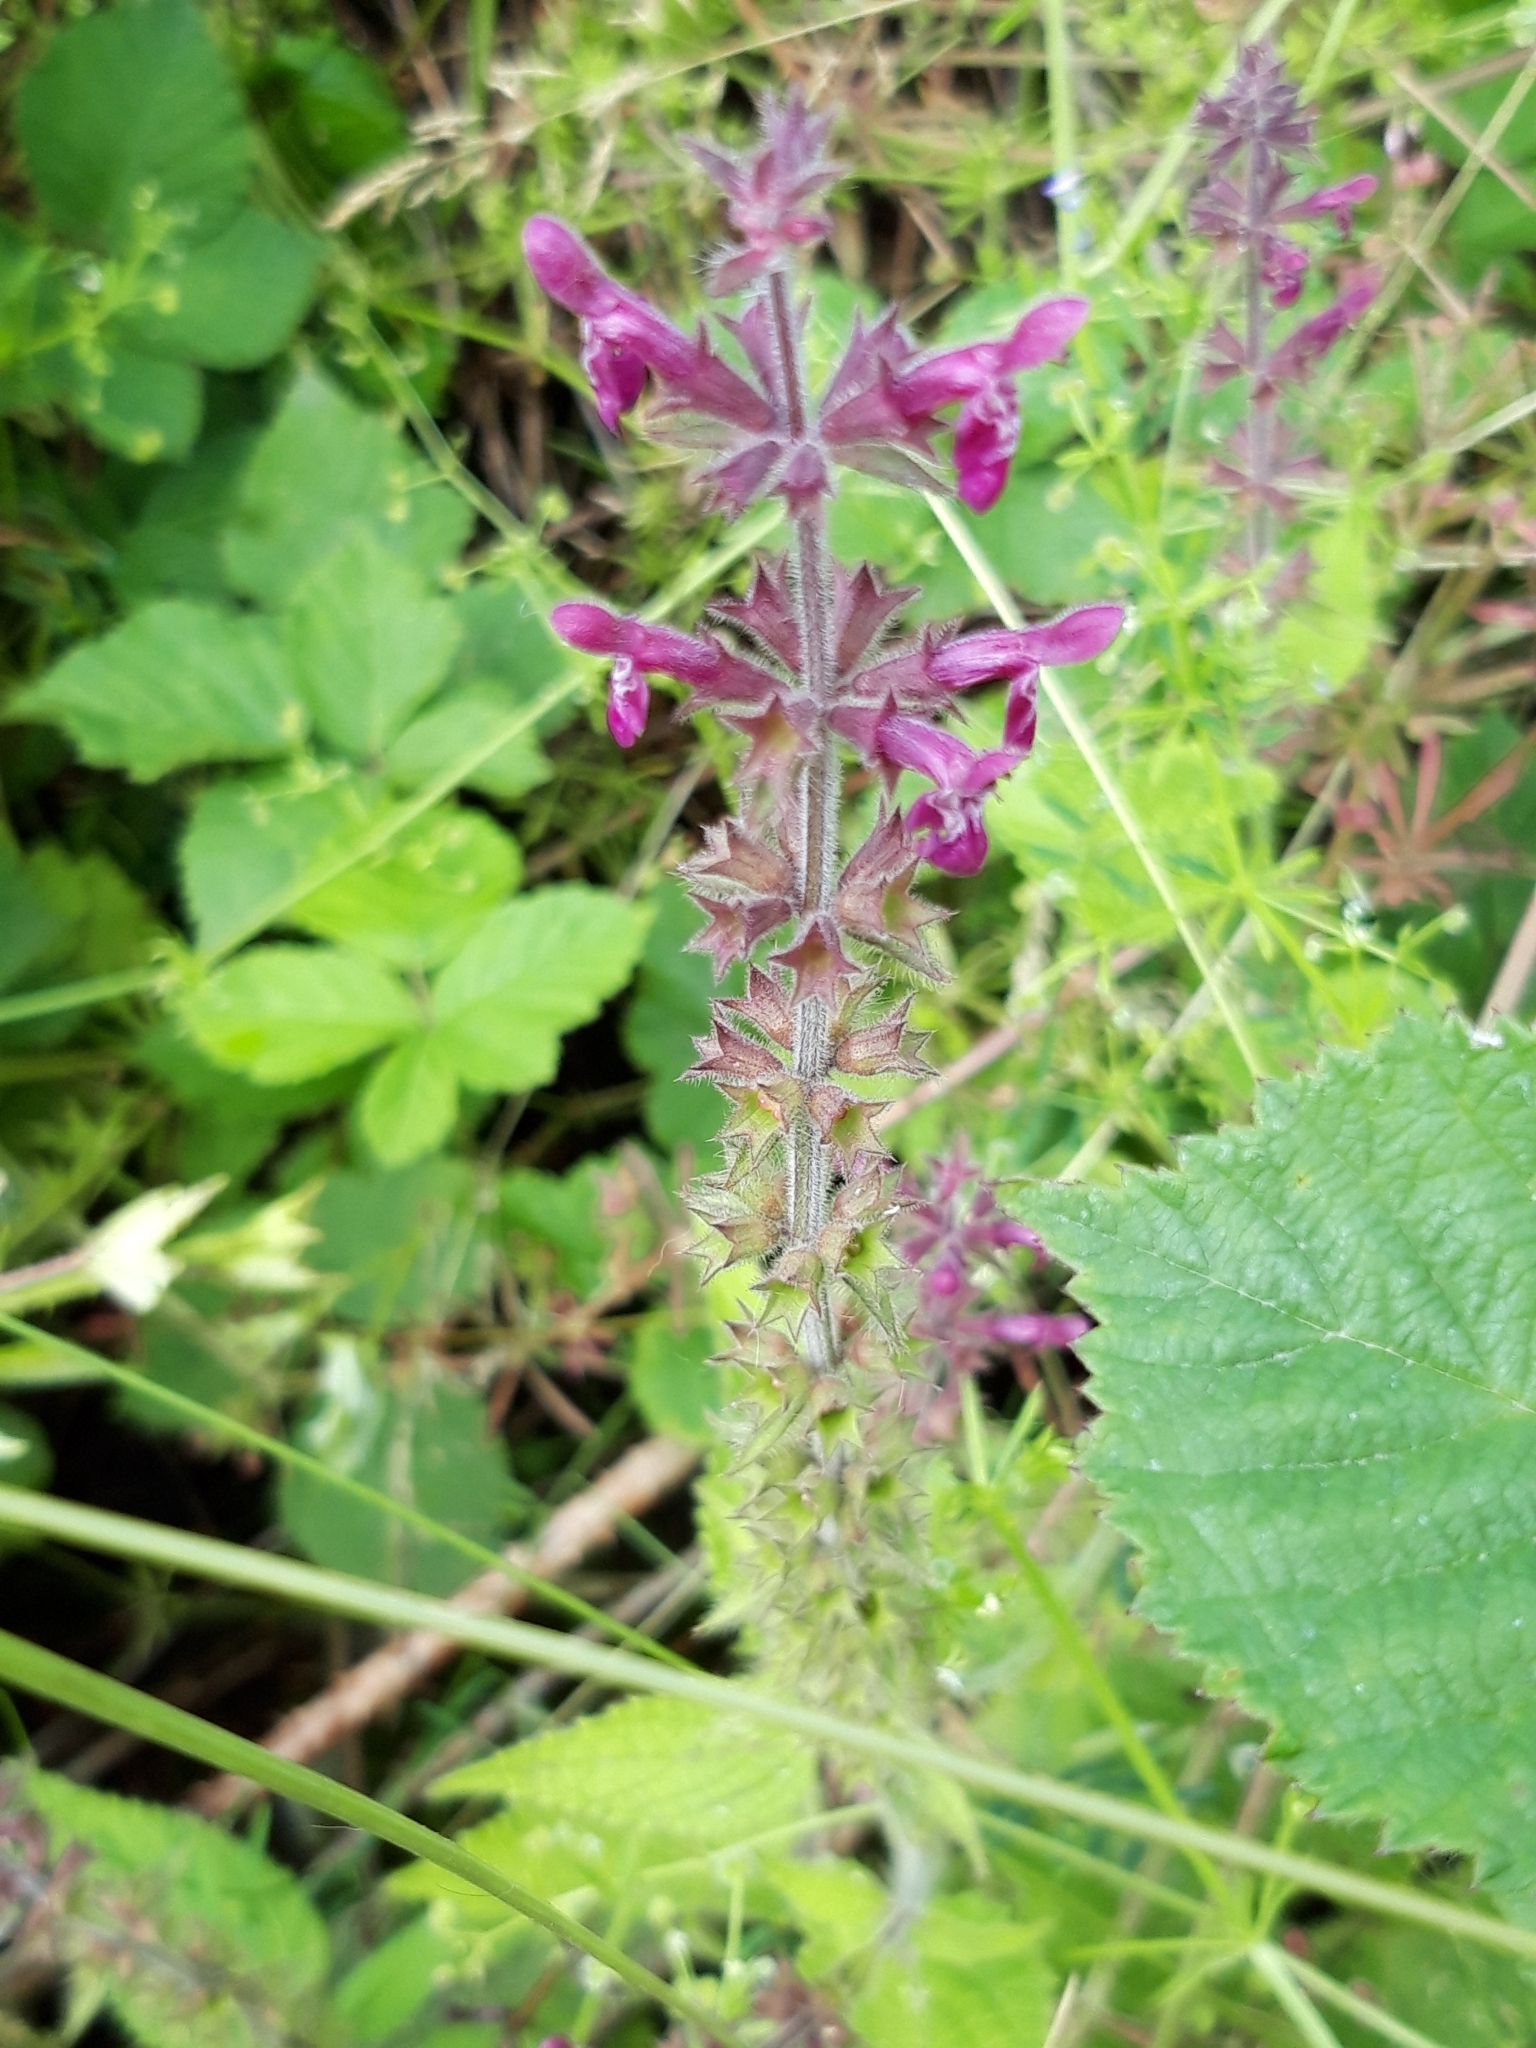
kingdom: Plantae
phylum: Tracheophyta
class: Magnoliopsida
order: Lamiales
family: Lamiaceae
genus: Stachys
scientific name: Stachys sylvatica
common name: Hedge woundwort
